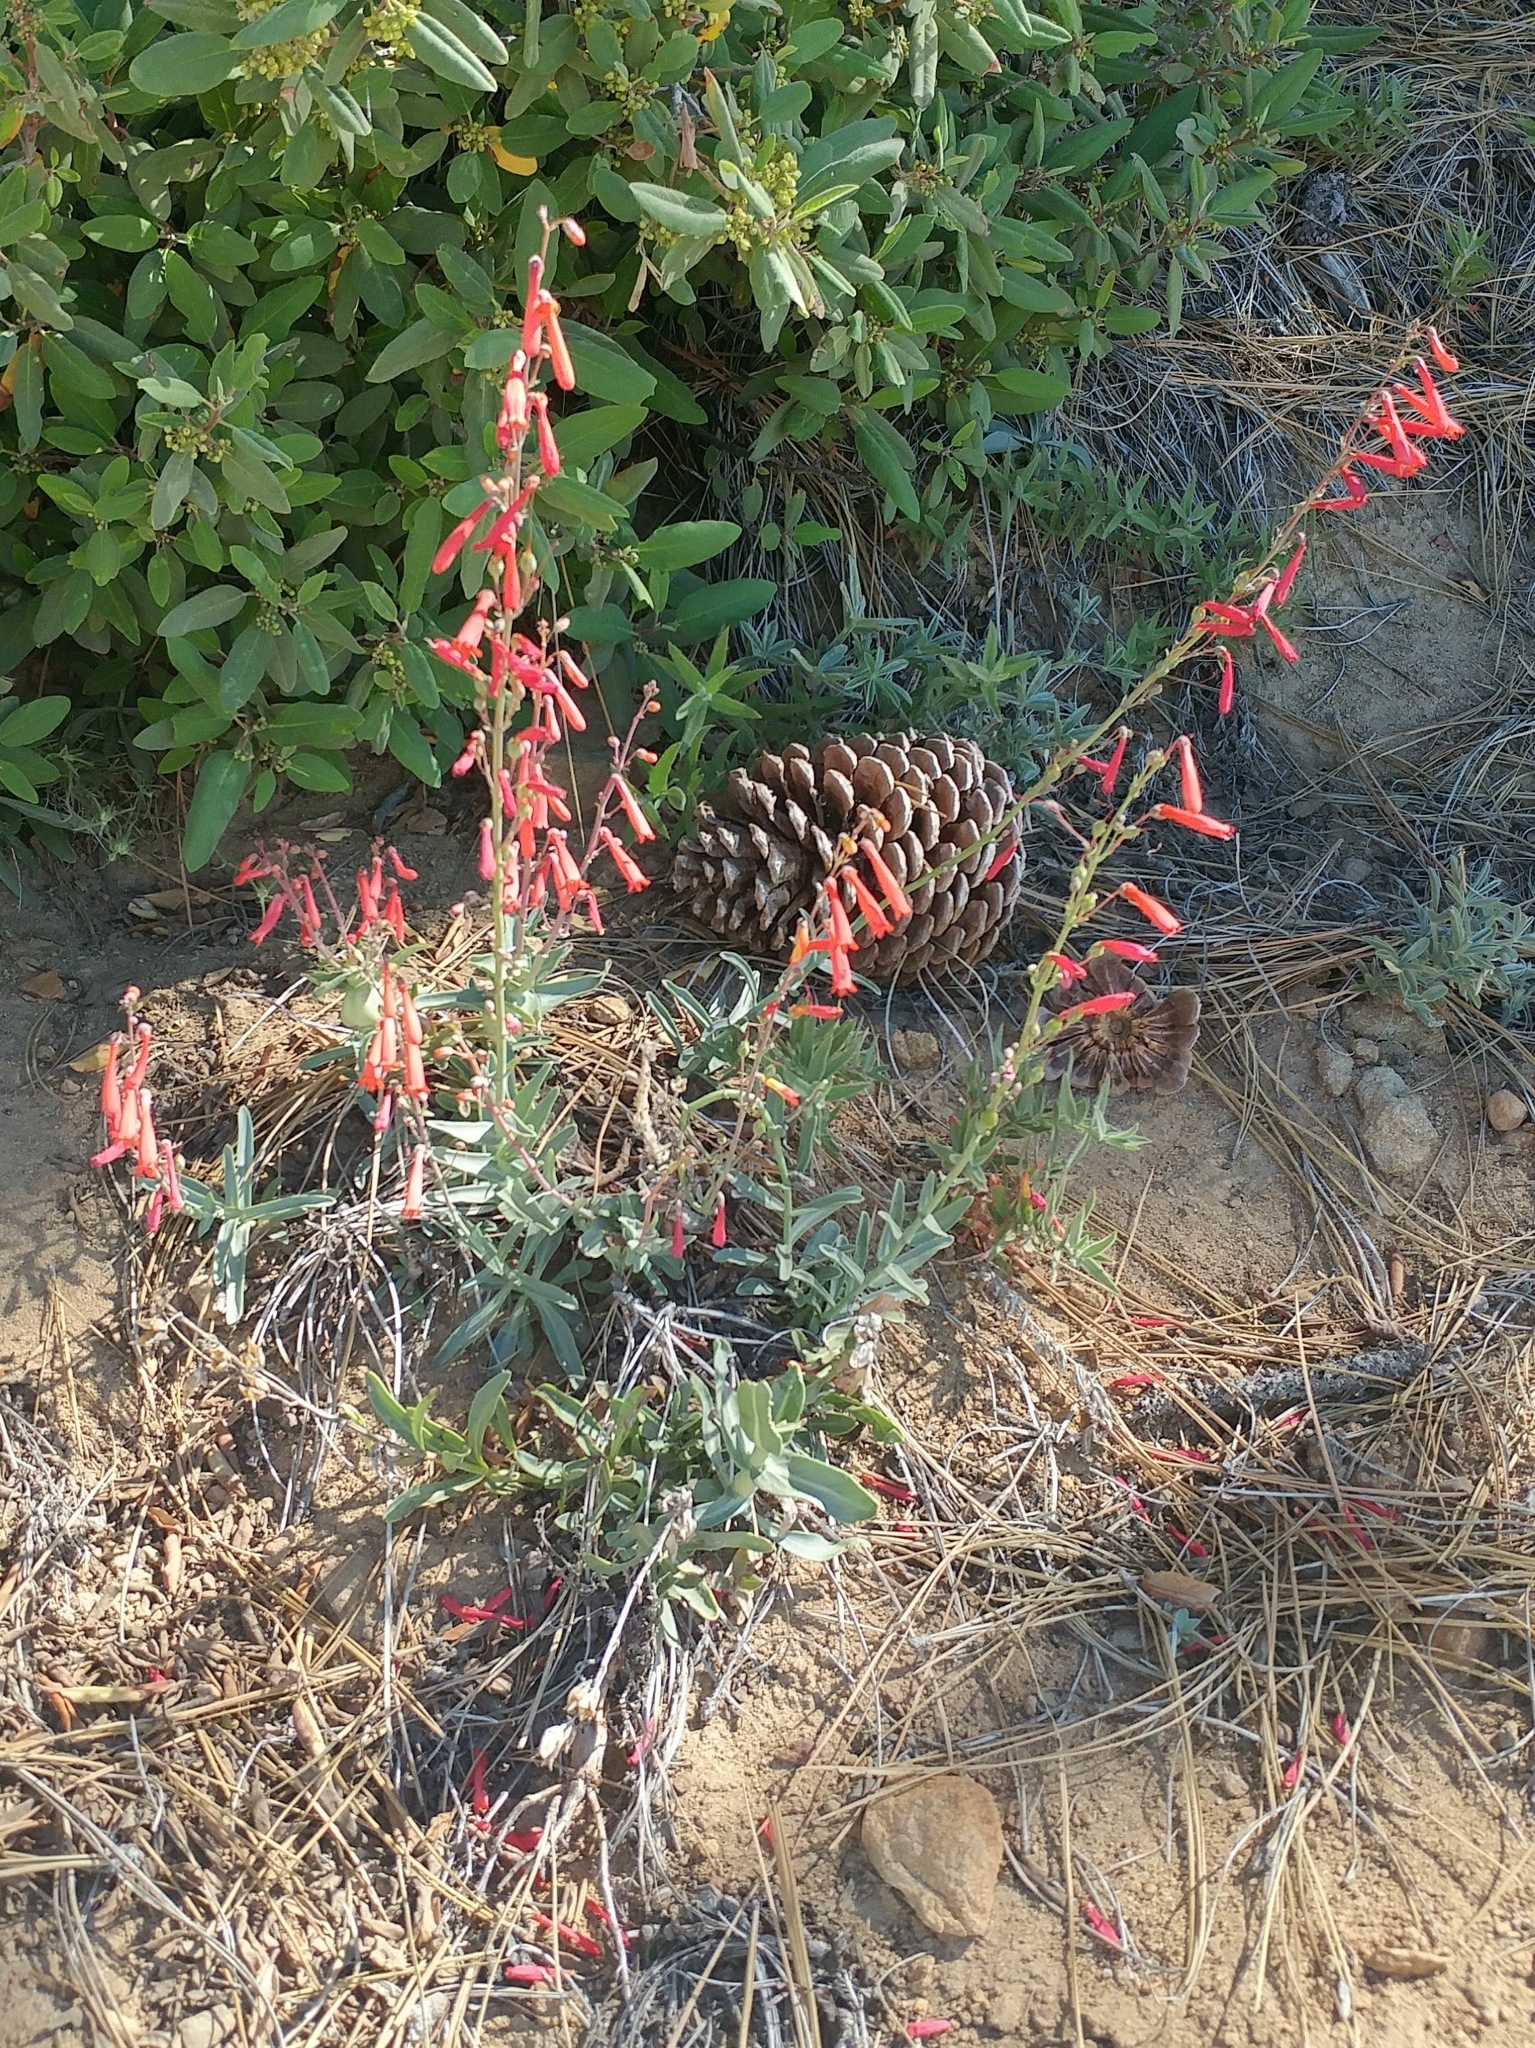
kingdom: Plantae
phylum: Tracheophyta
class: Magnoliopsida
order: Lamiales
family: Plantaginaceae
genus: Penstemon
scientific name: Penstemon centranthifolius
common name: Scarlet bugler
